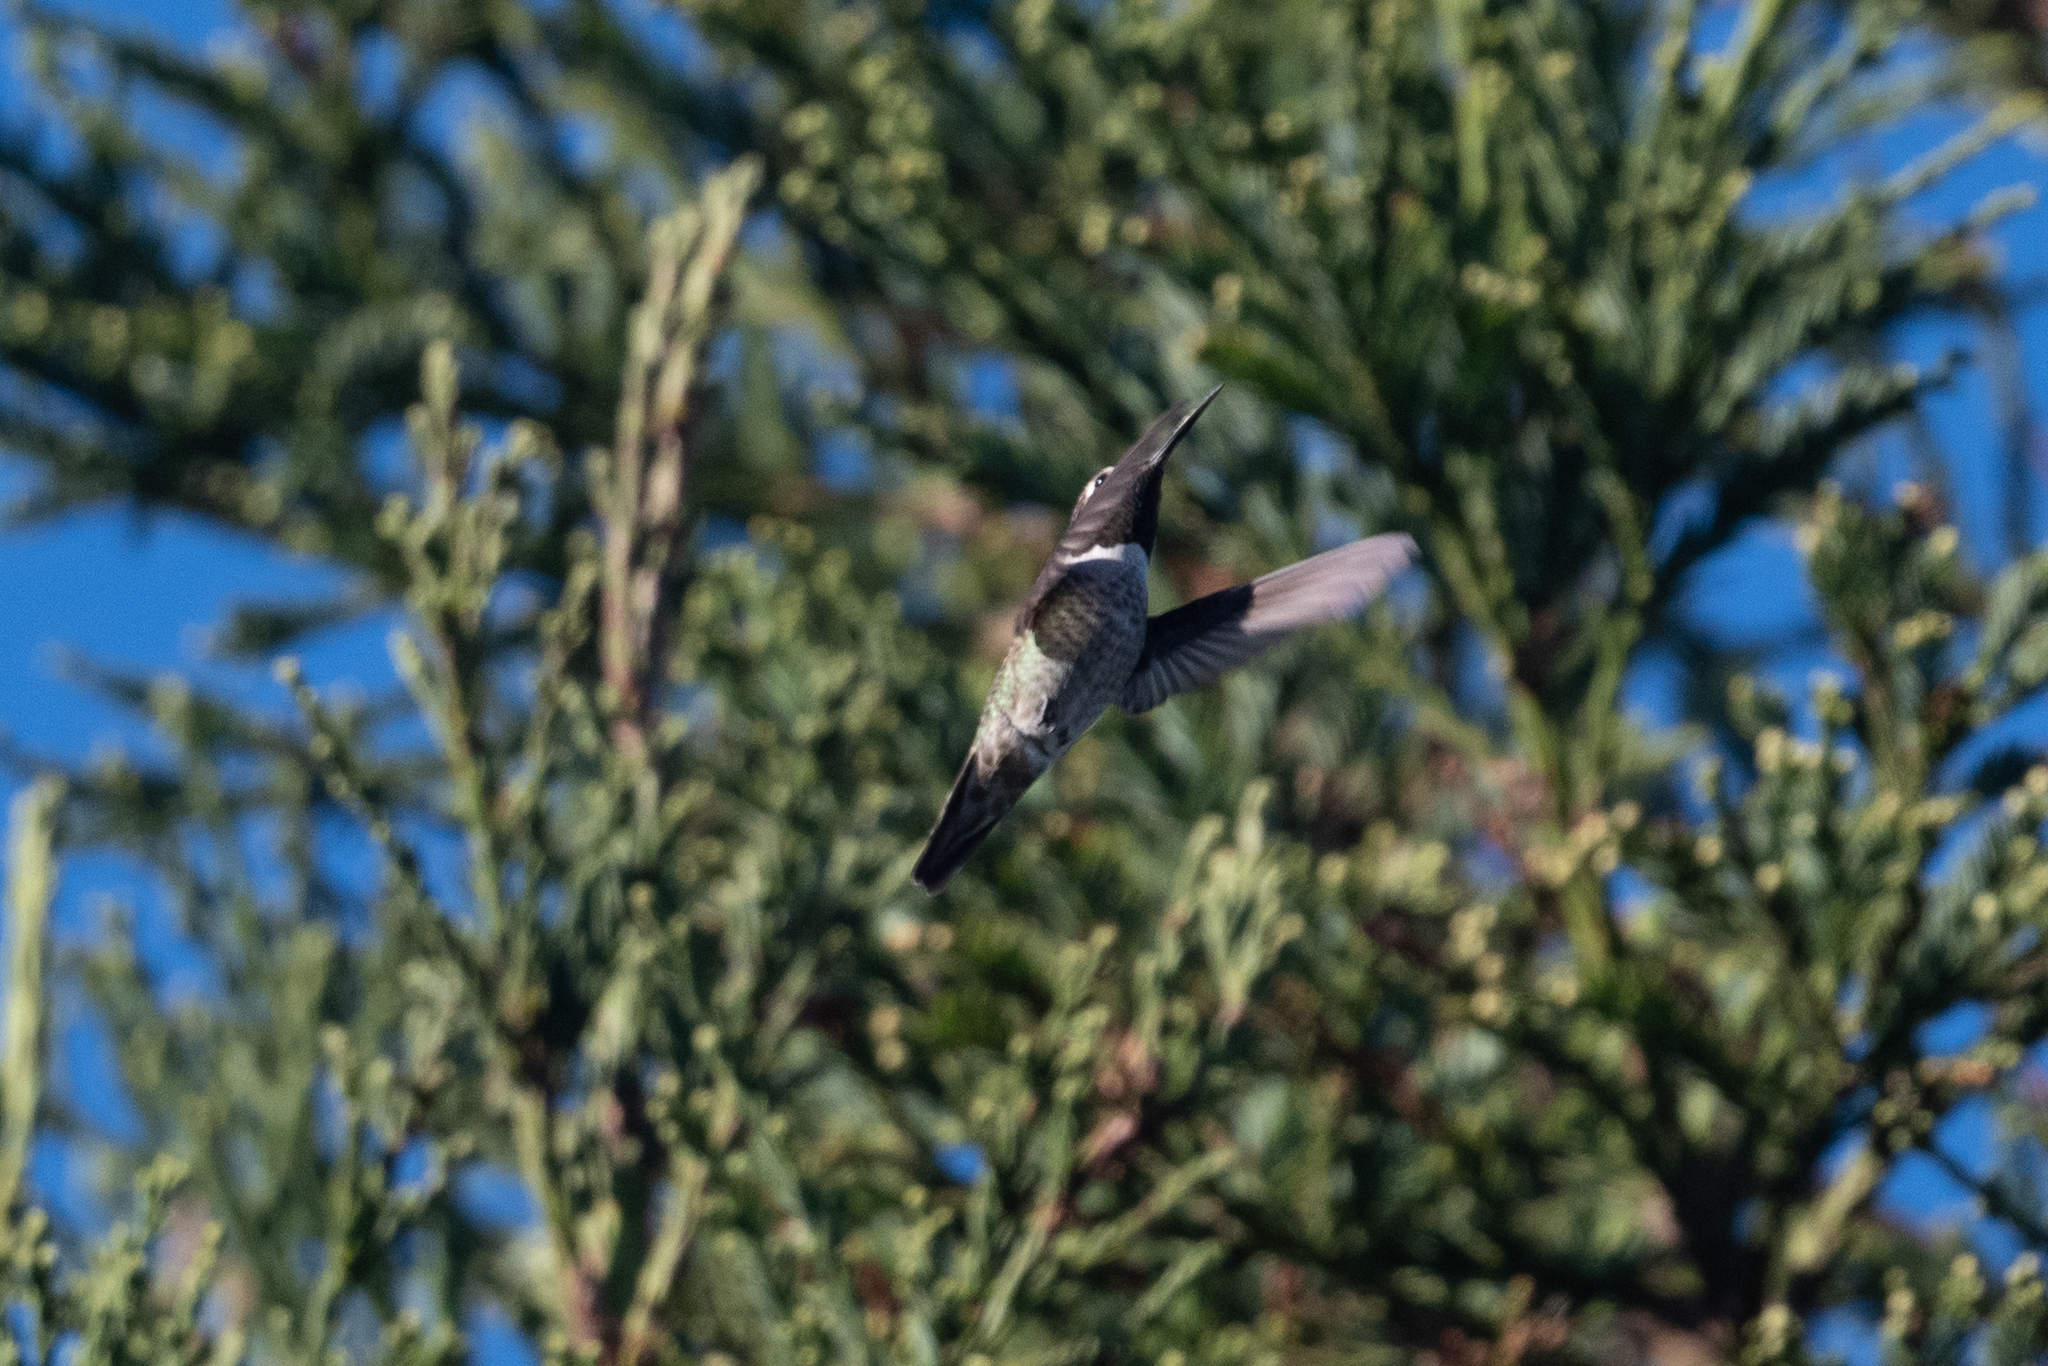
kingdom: Animalia
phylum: Chordata
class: Aves
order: Apodiformes
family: Trochilidae
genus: Calypte
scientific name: Calypte anna
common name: Anna's hummingbird
